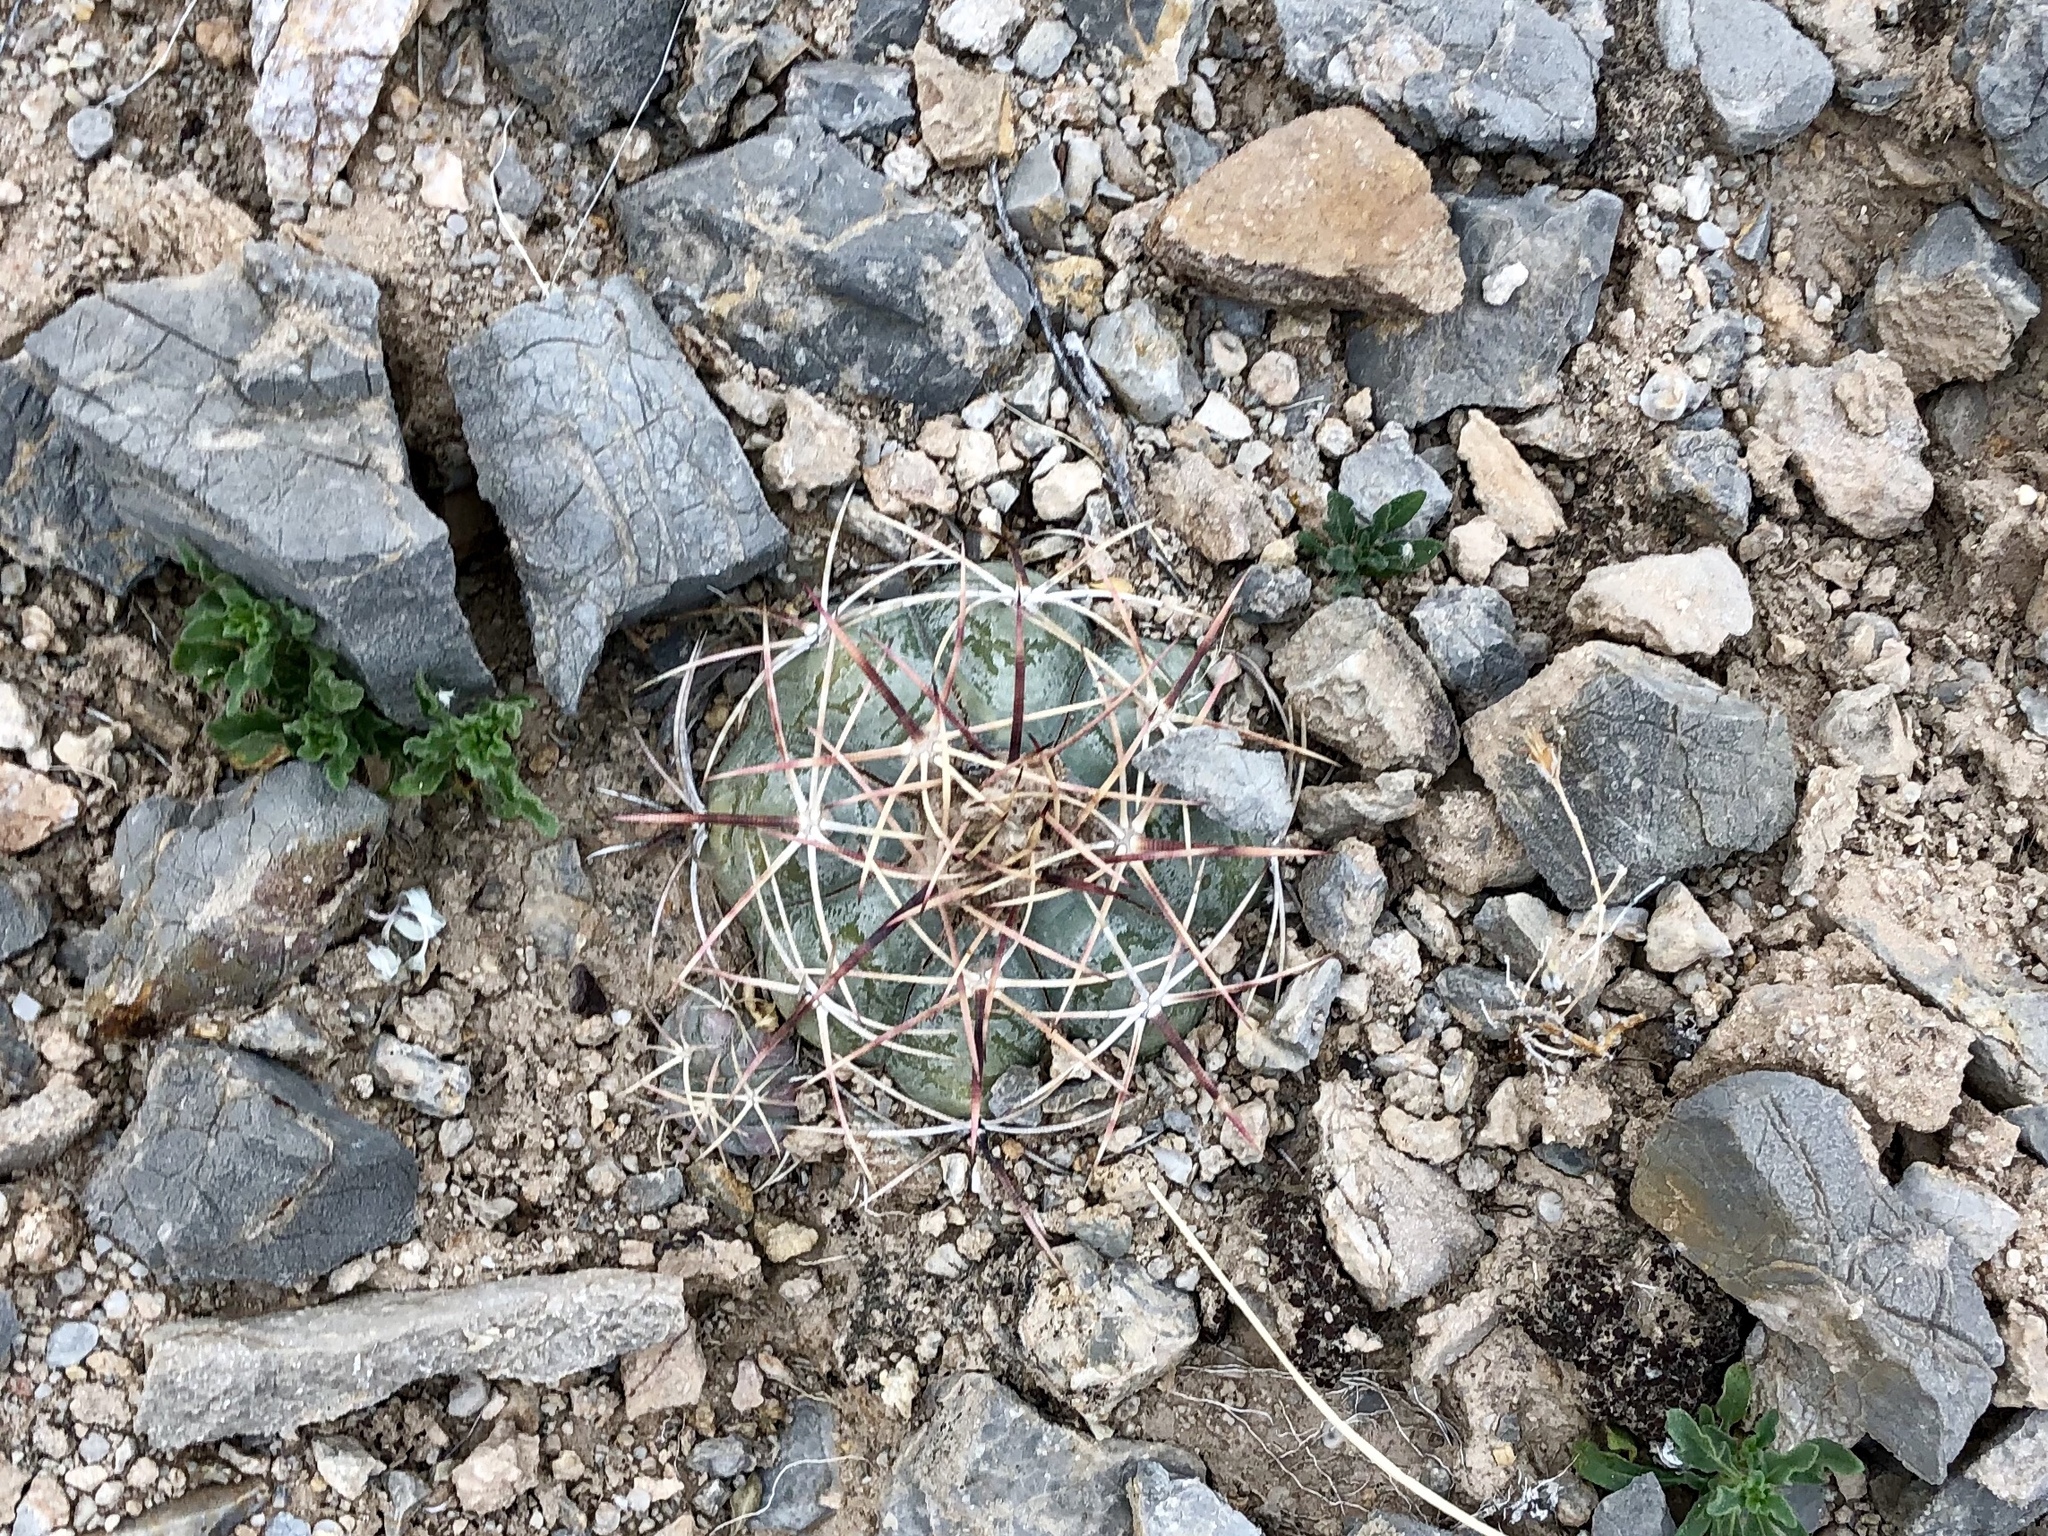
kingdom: Plantae
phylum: Tracheophyta
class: Magnoliopsida
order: Caryophyllales
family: Cactaceae
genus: Echinocactus
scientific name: Echinocactus horizonthalonius
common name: Devilshead
